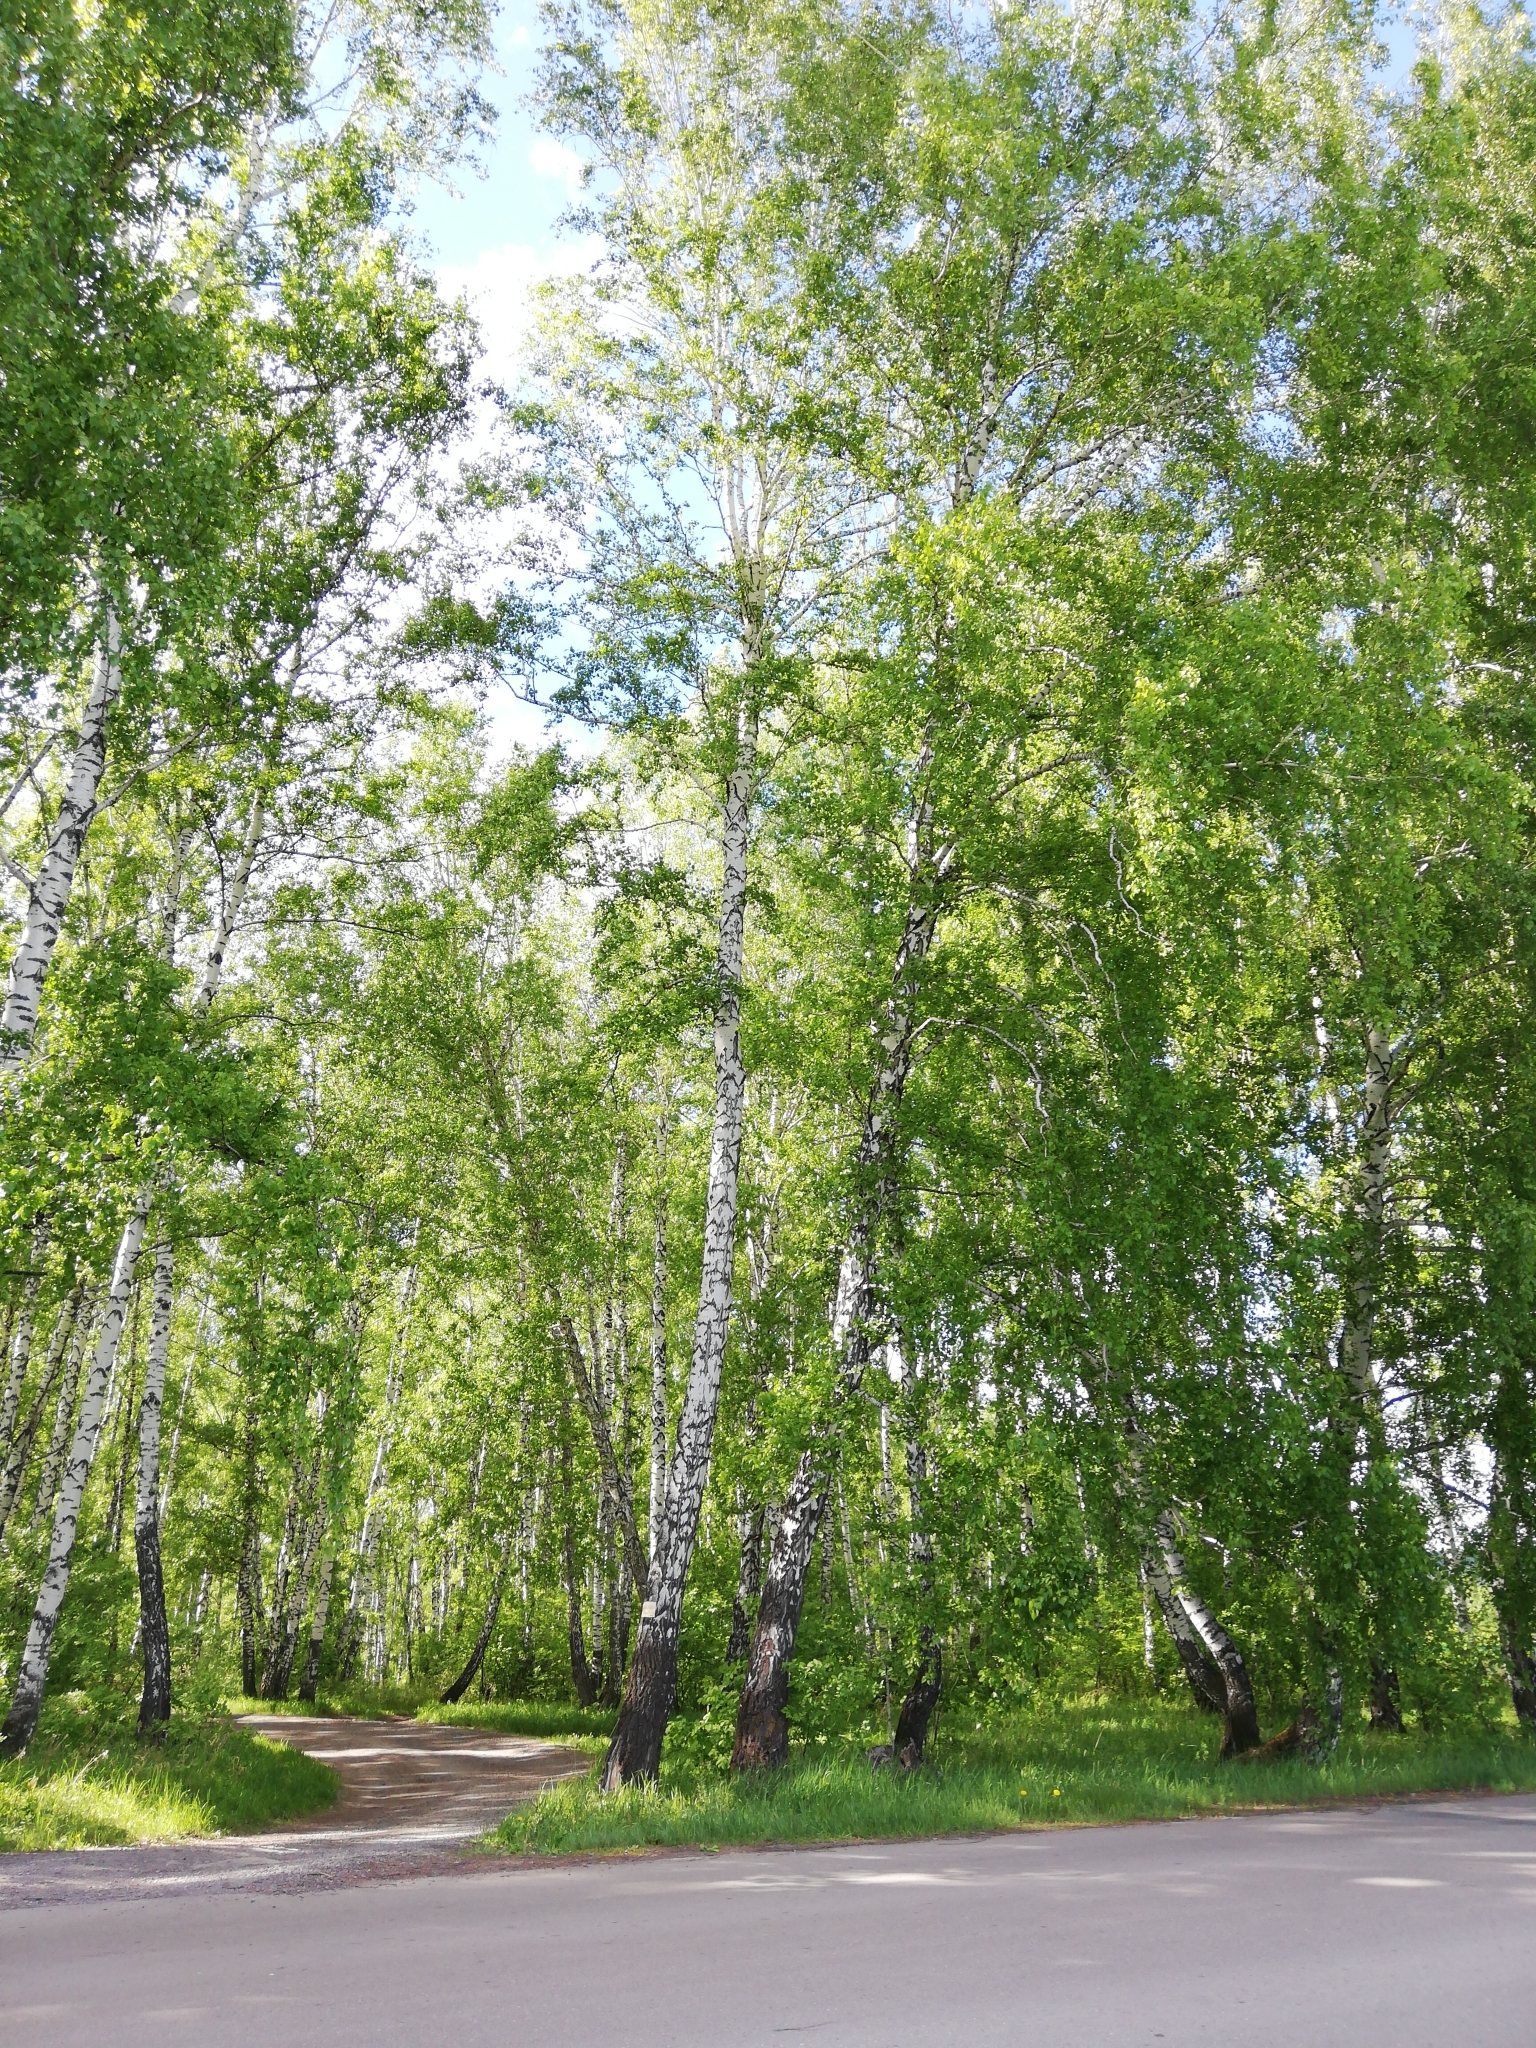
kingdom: Plantae
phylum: Tracheophyta
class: Magnoliopsida
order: Fagales
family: Betulaceae
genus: Betula
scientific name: Betula pendula
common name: Silver birch
